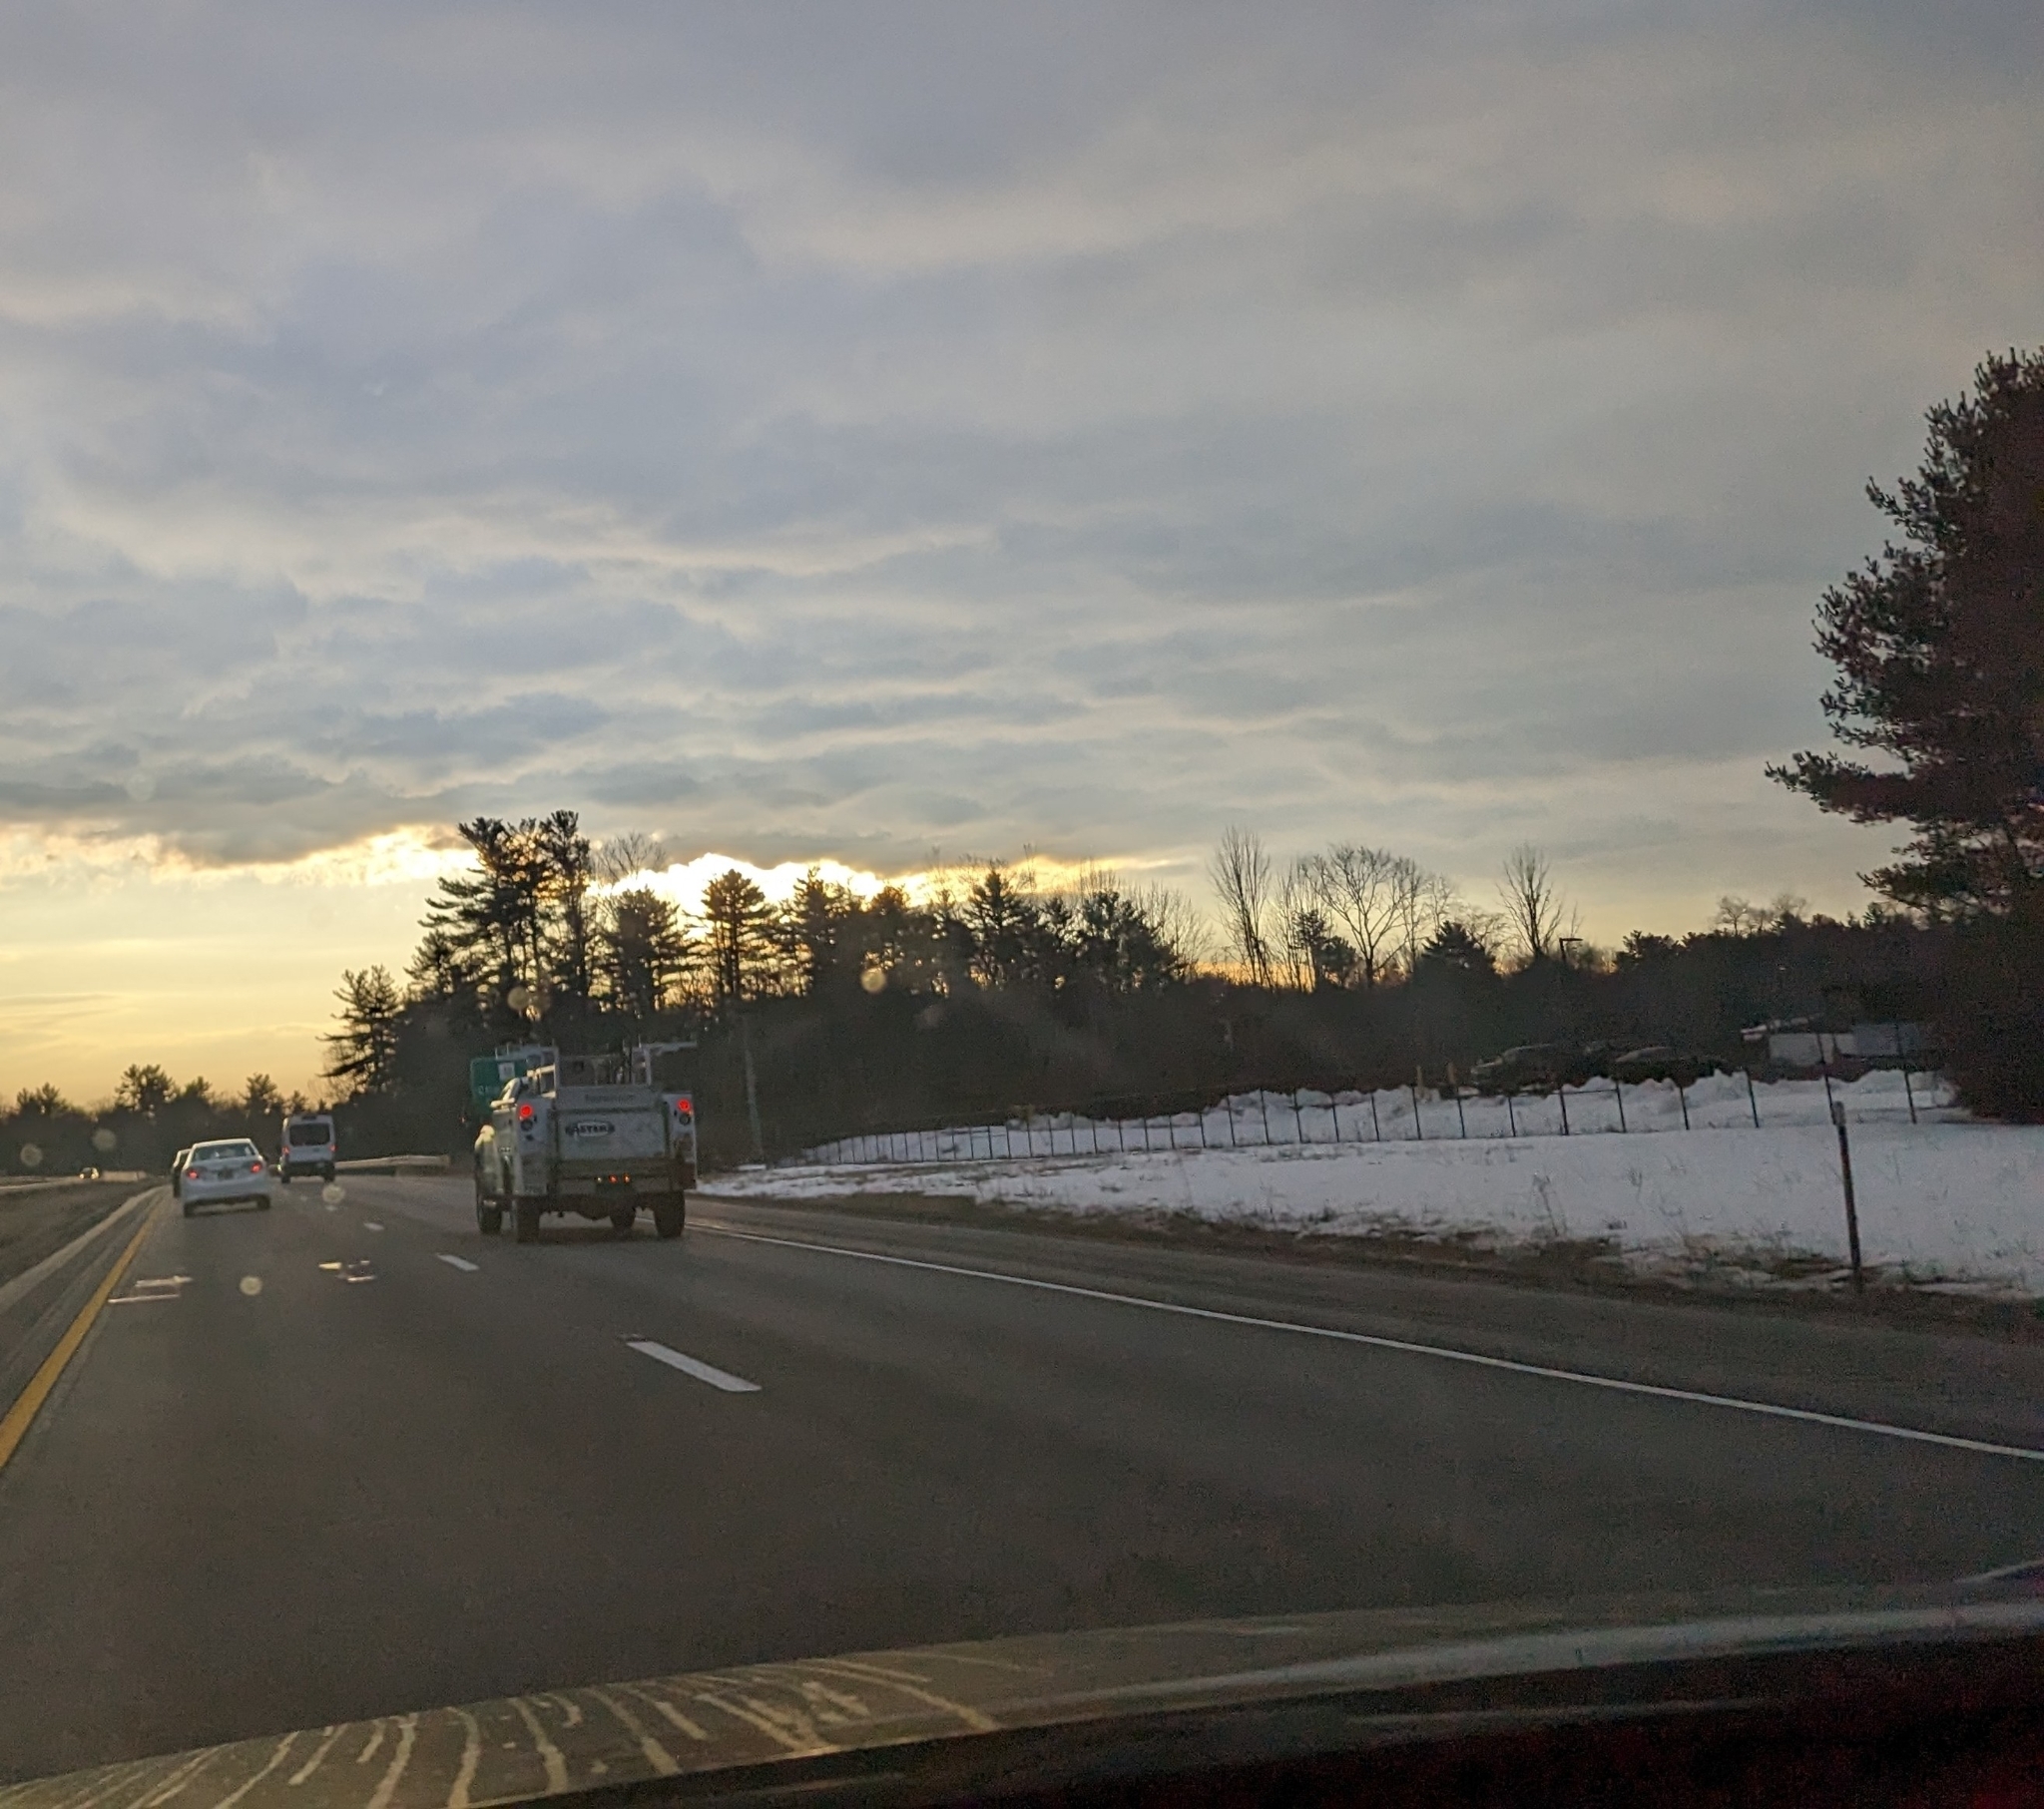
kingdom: Plantae
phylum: Tracheophyta
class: Pinopsida
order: Pinales
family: Pinaceae
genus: Pinus
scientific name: Pinus strobus
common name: Weymouth pine
